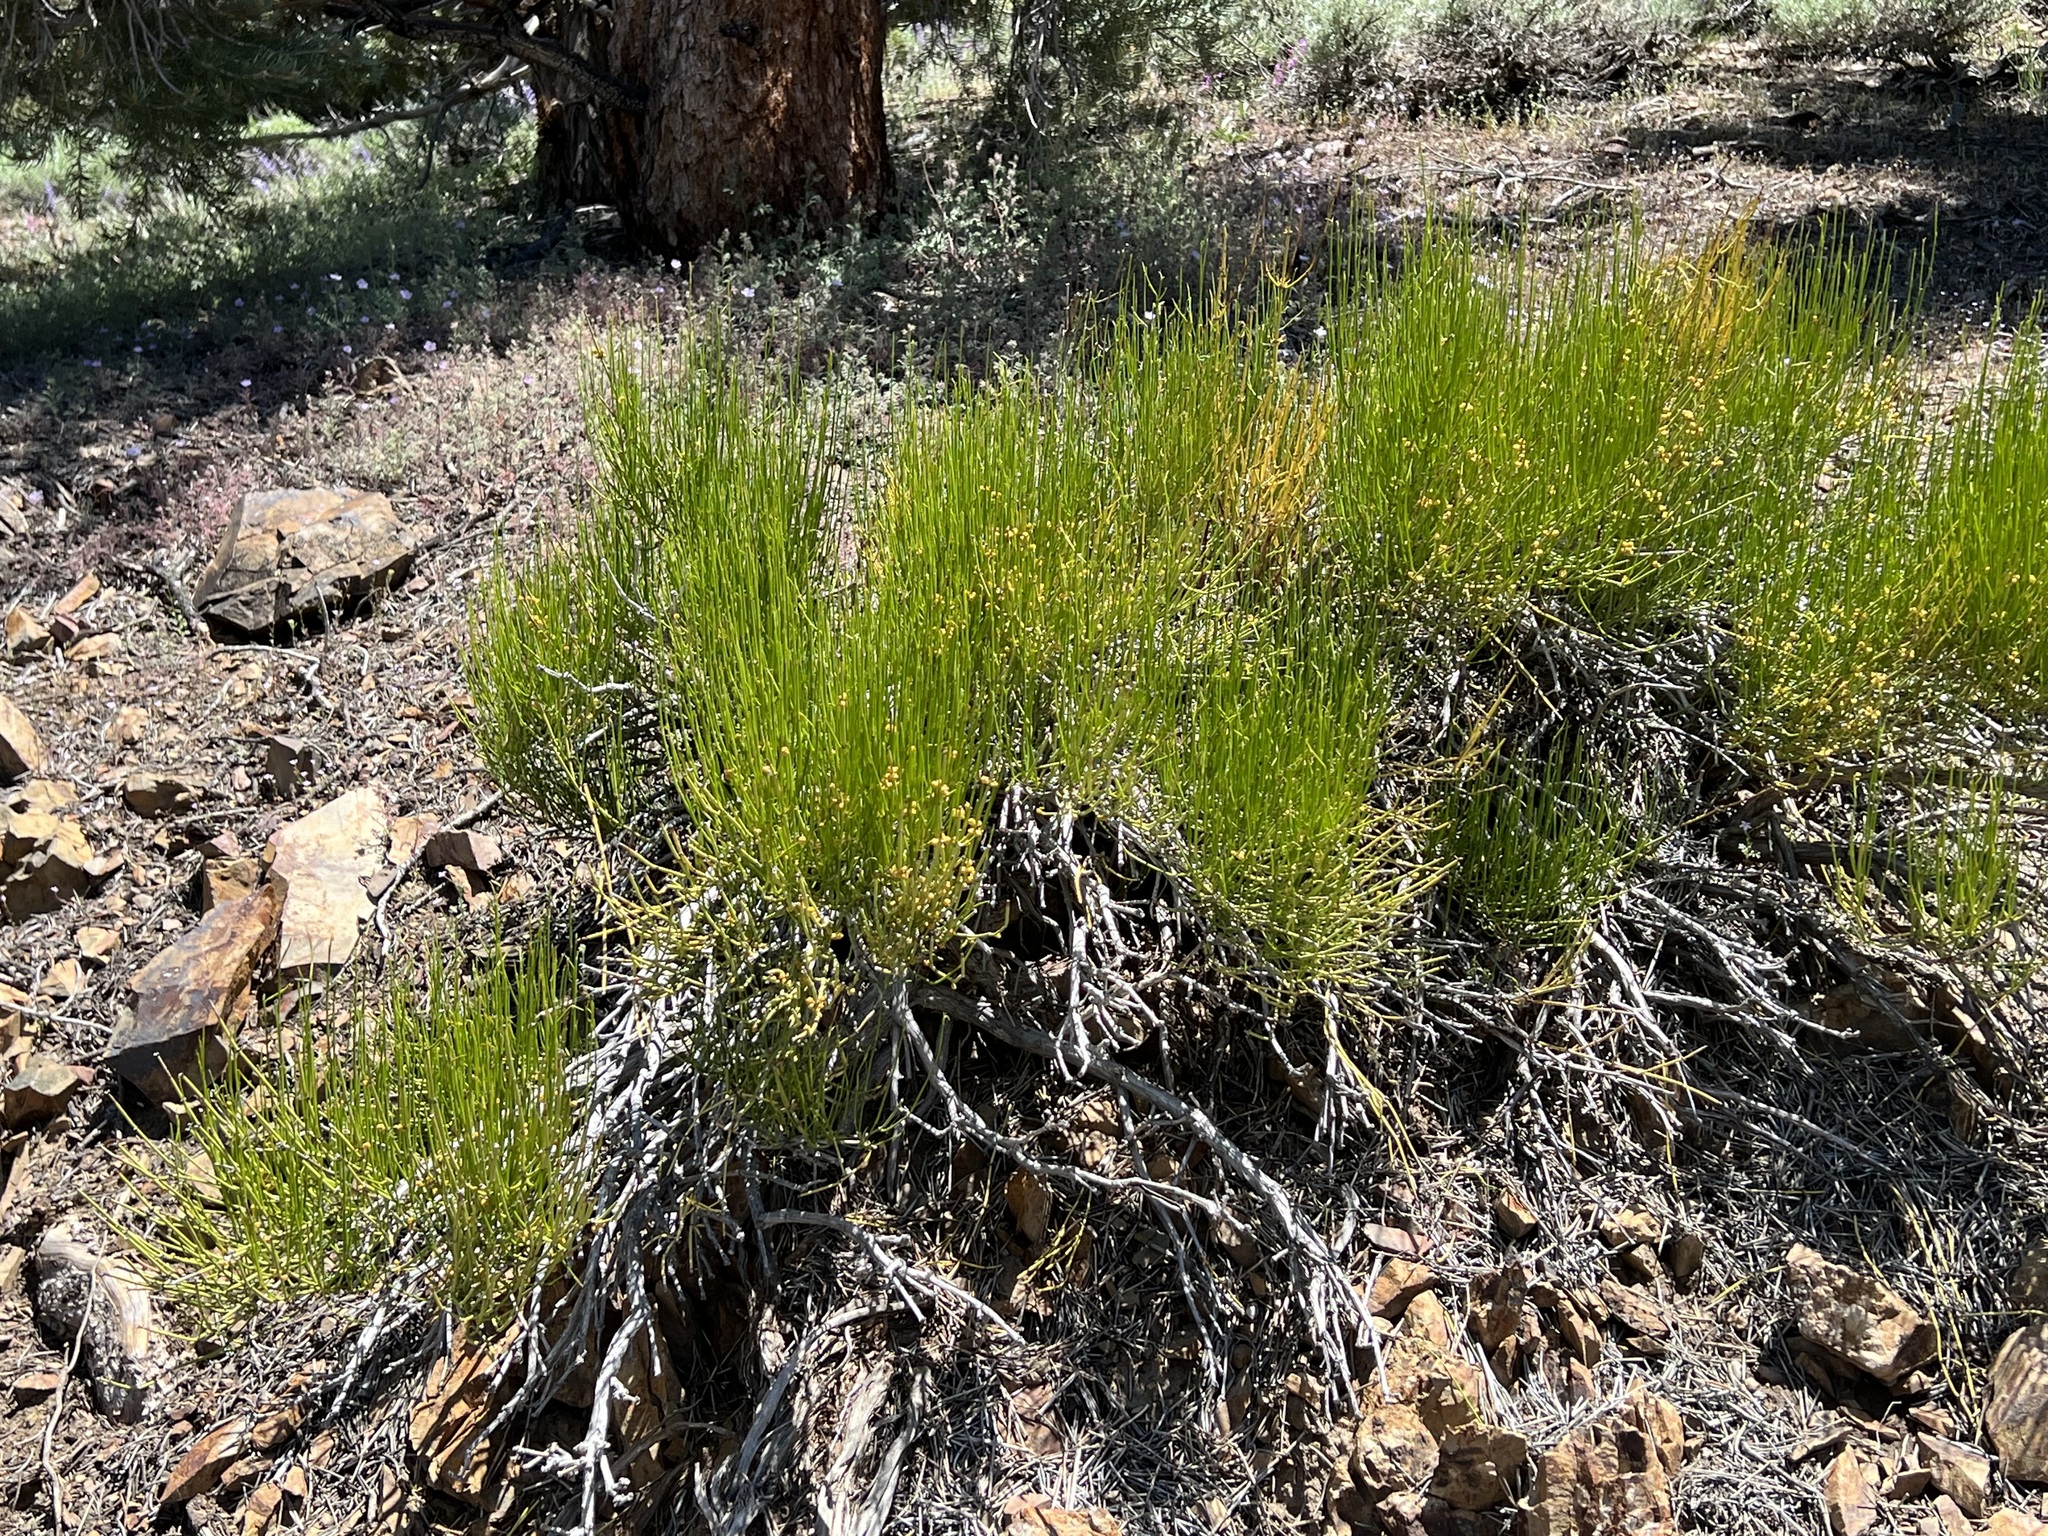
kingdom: Plantae
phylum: Tracheophyta
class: Gnetopsida
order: Ephedrales
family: Ephedraceae
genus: Ephedra
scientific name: Ephedra viridis
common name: Green ephedra
